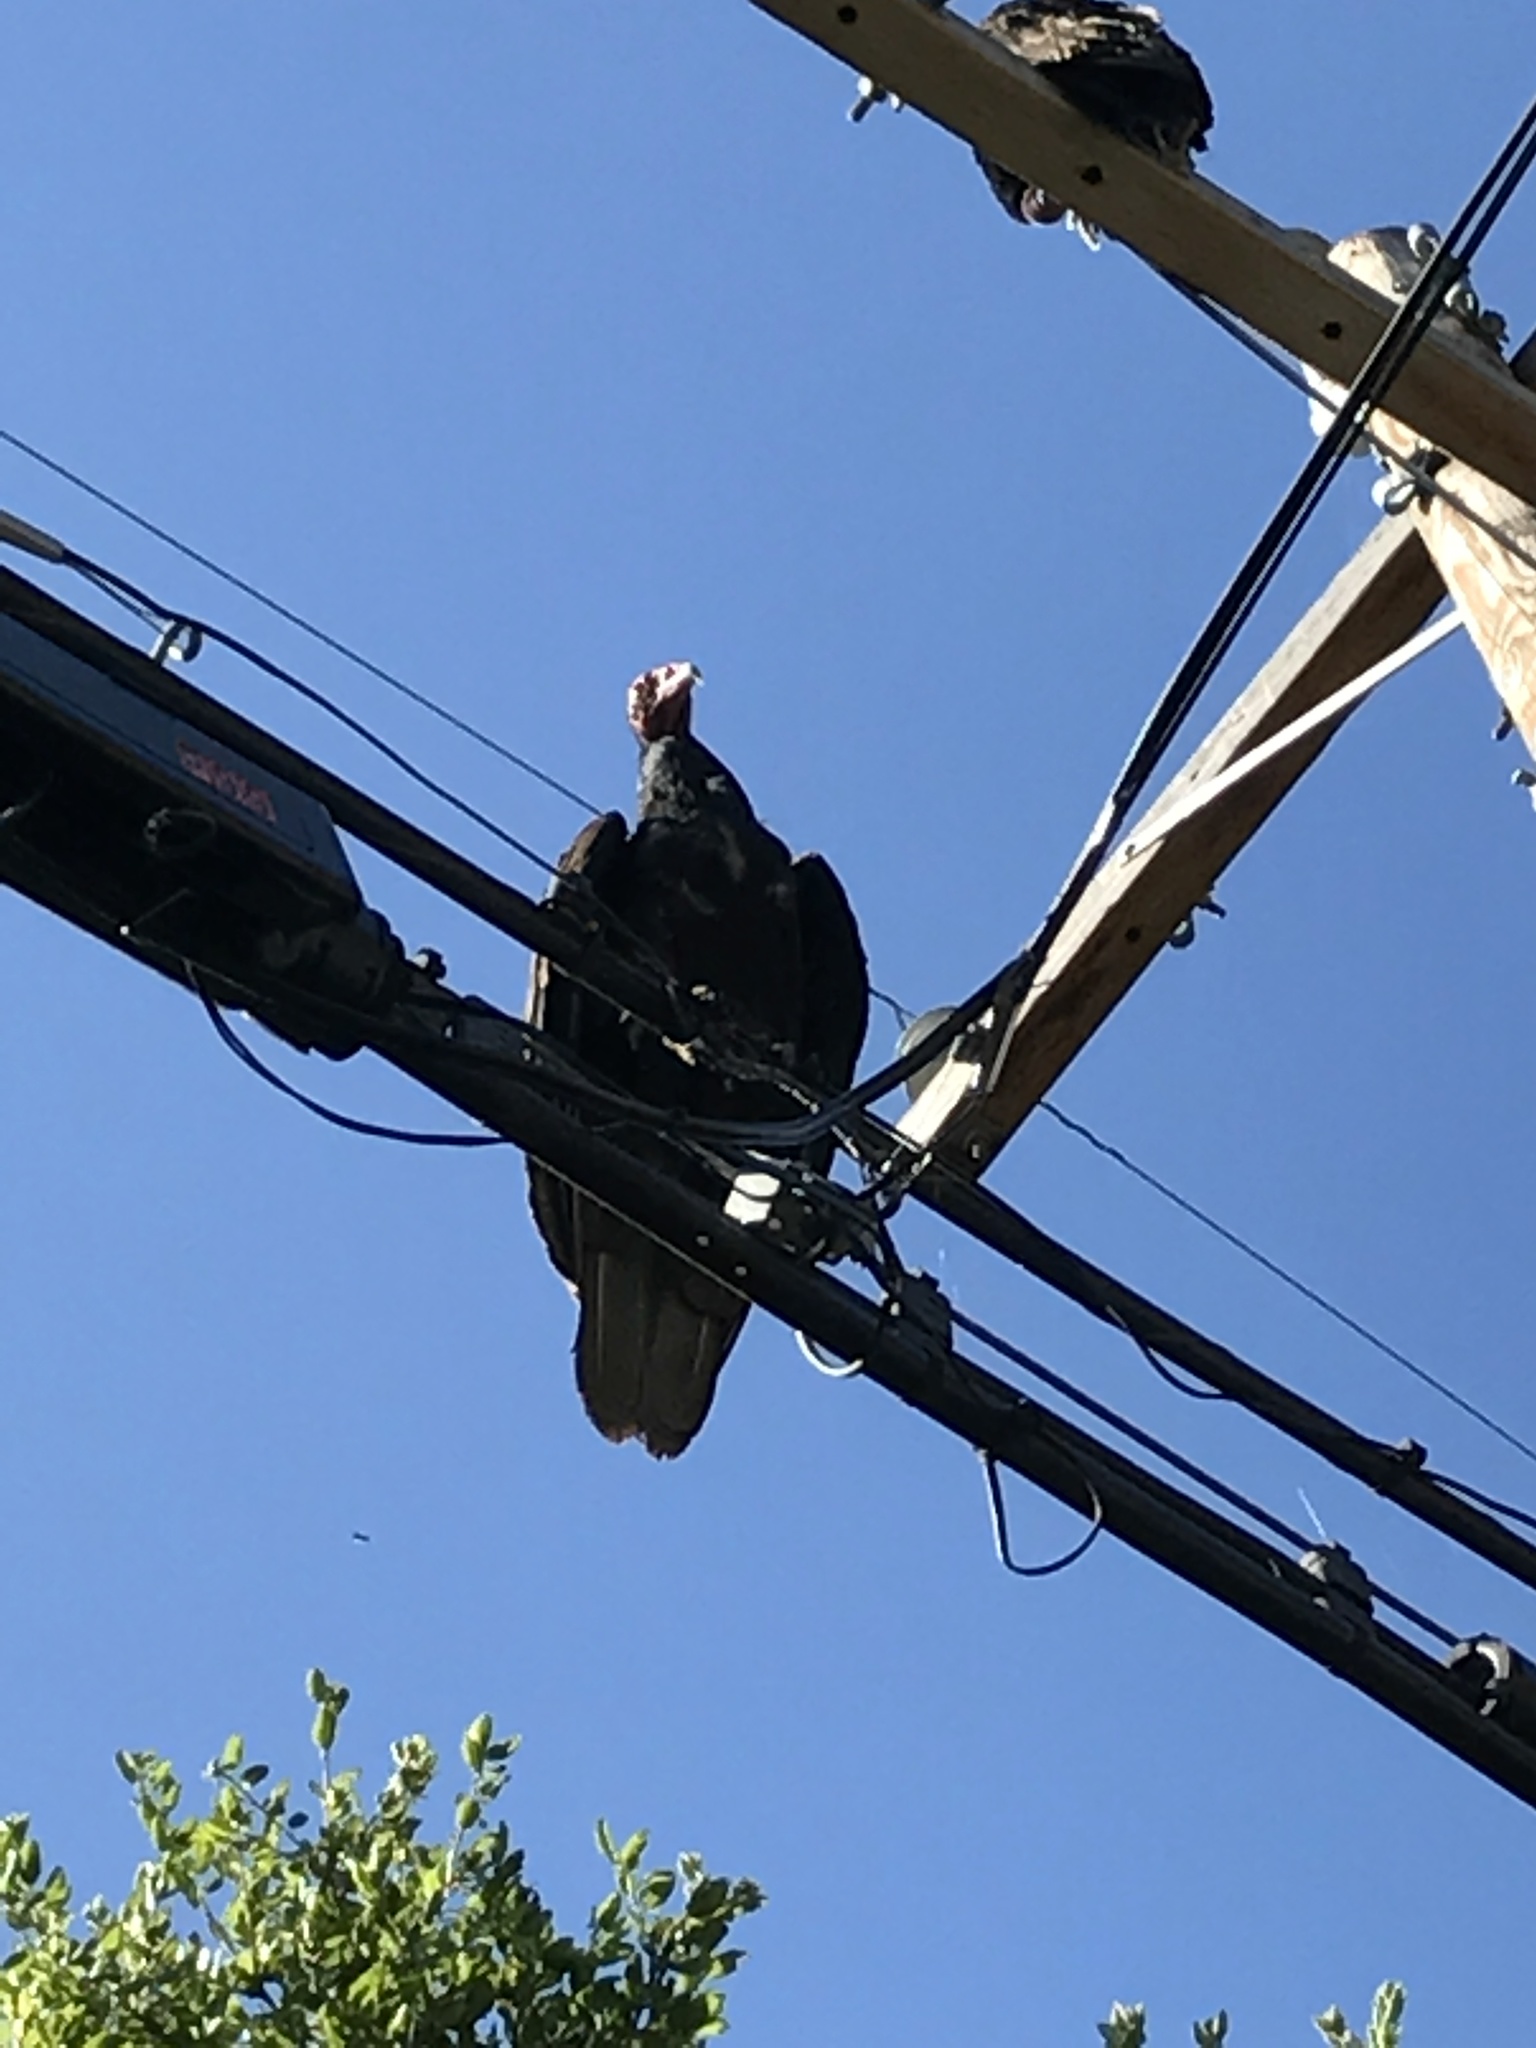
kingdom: Animalia
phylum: Chordata
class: Aves
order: Accipitriformes
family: Cathartidae
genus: Cathartes
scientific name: Cathartes aura
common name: Turkey vulture
